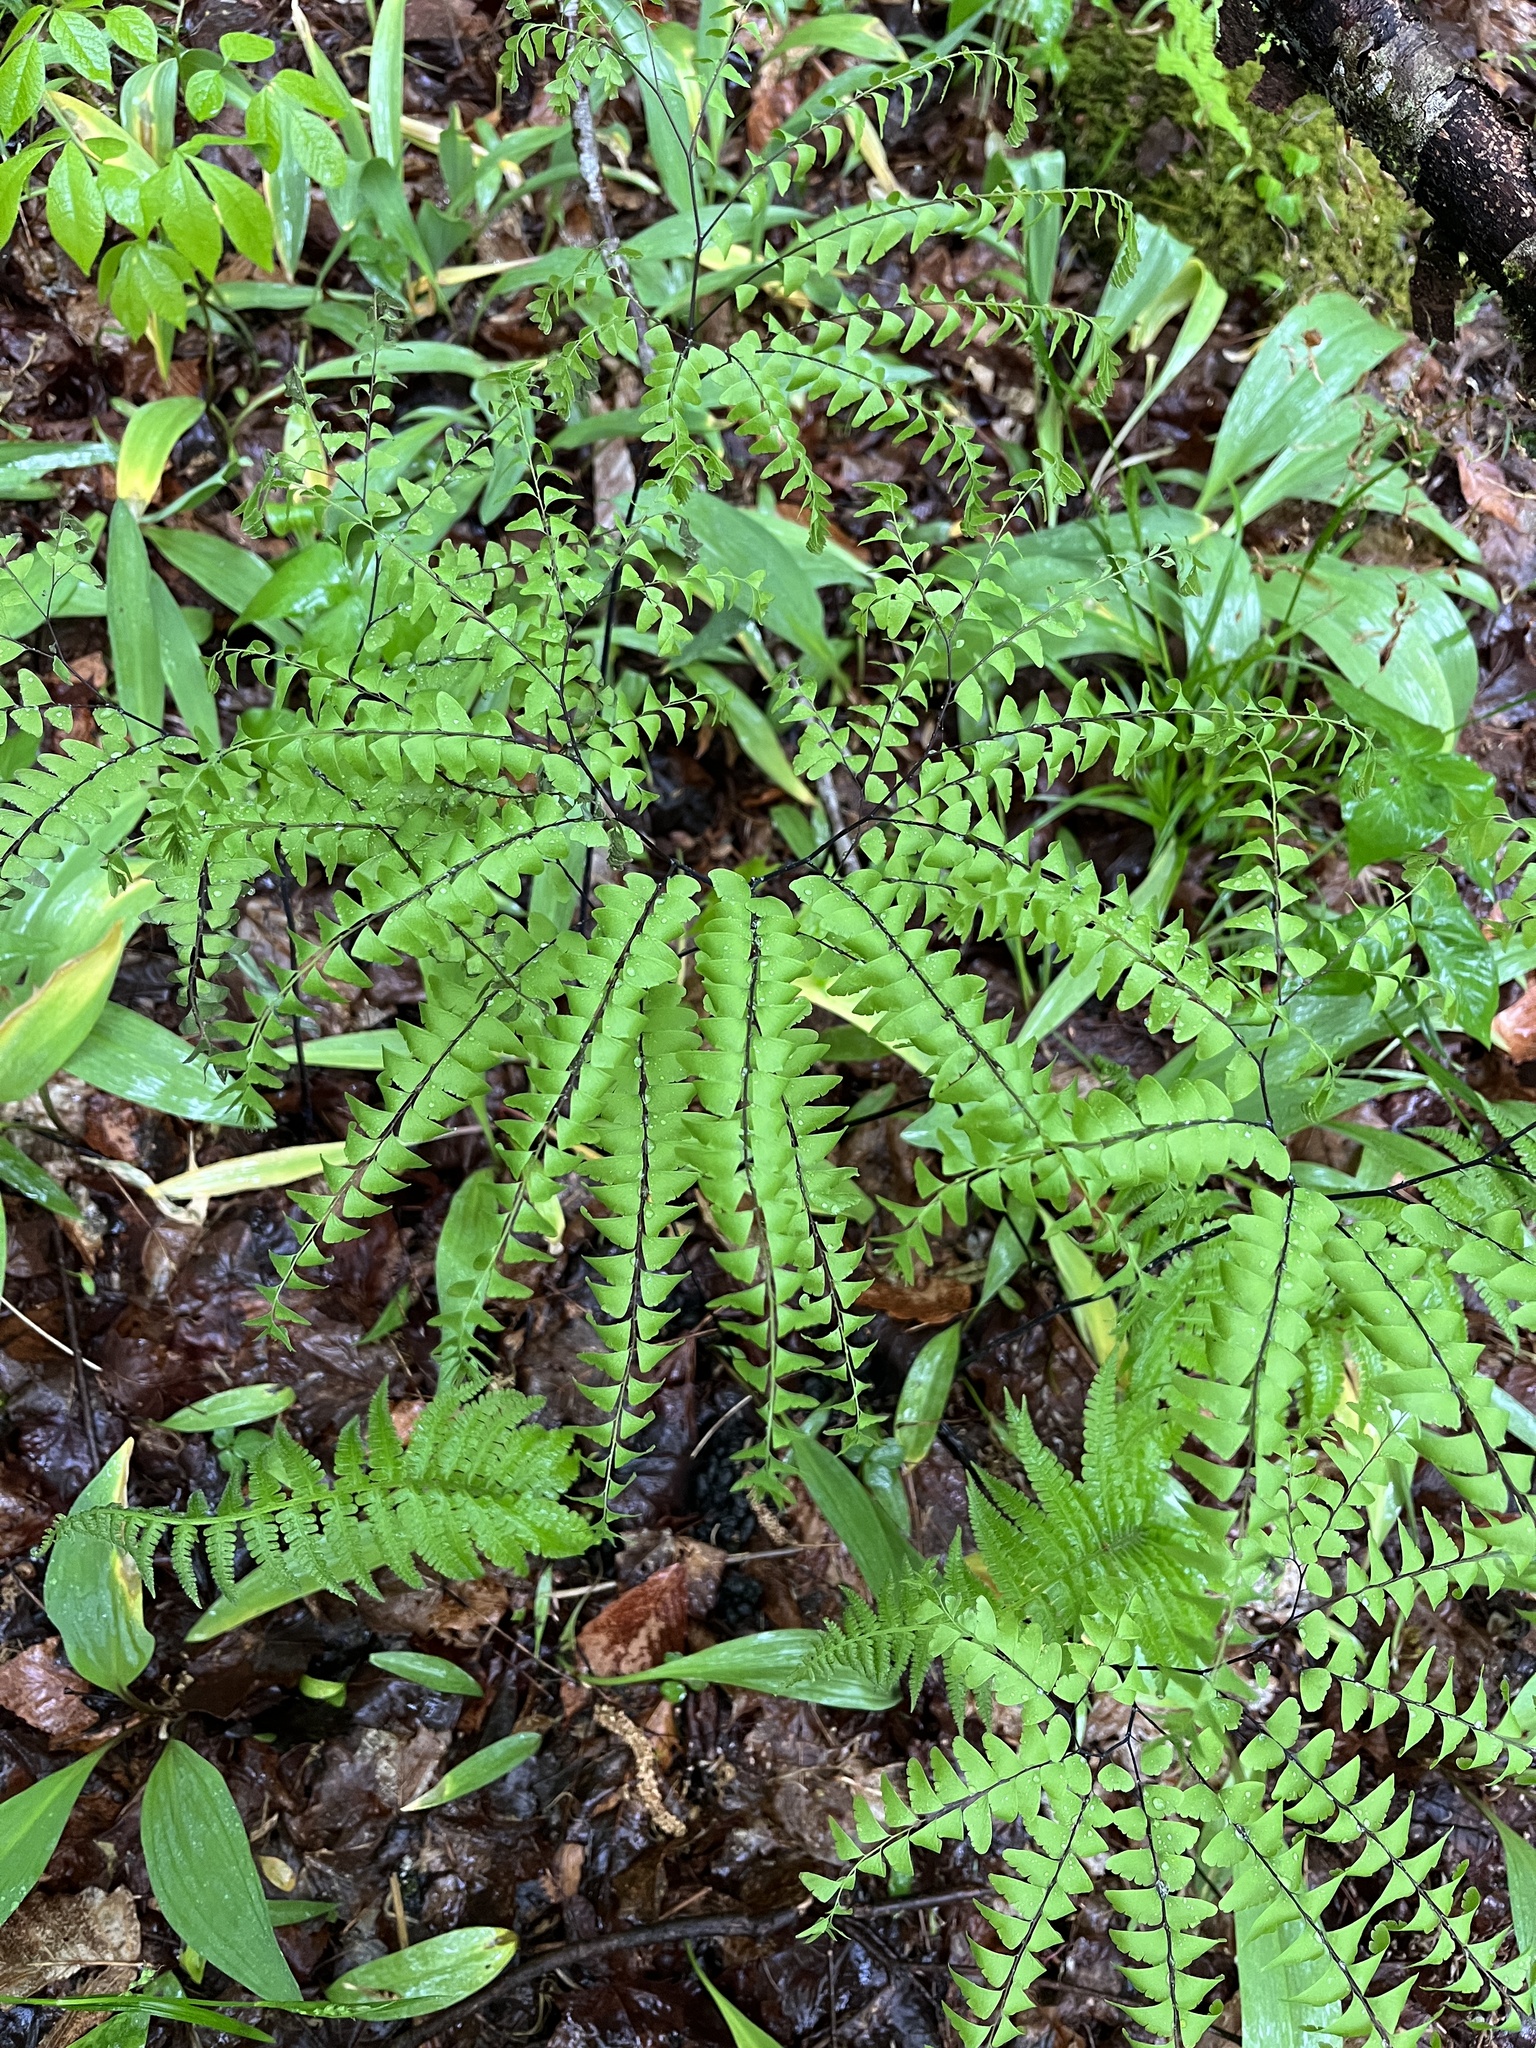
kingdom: Plantae
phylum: Tracheophyta
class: Polypodiopsida
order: Polypodiales
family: Pteridaceae
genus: Adiantum
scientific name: Adiantum pedatum
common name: Five-finger fern
